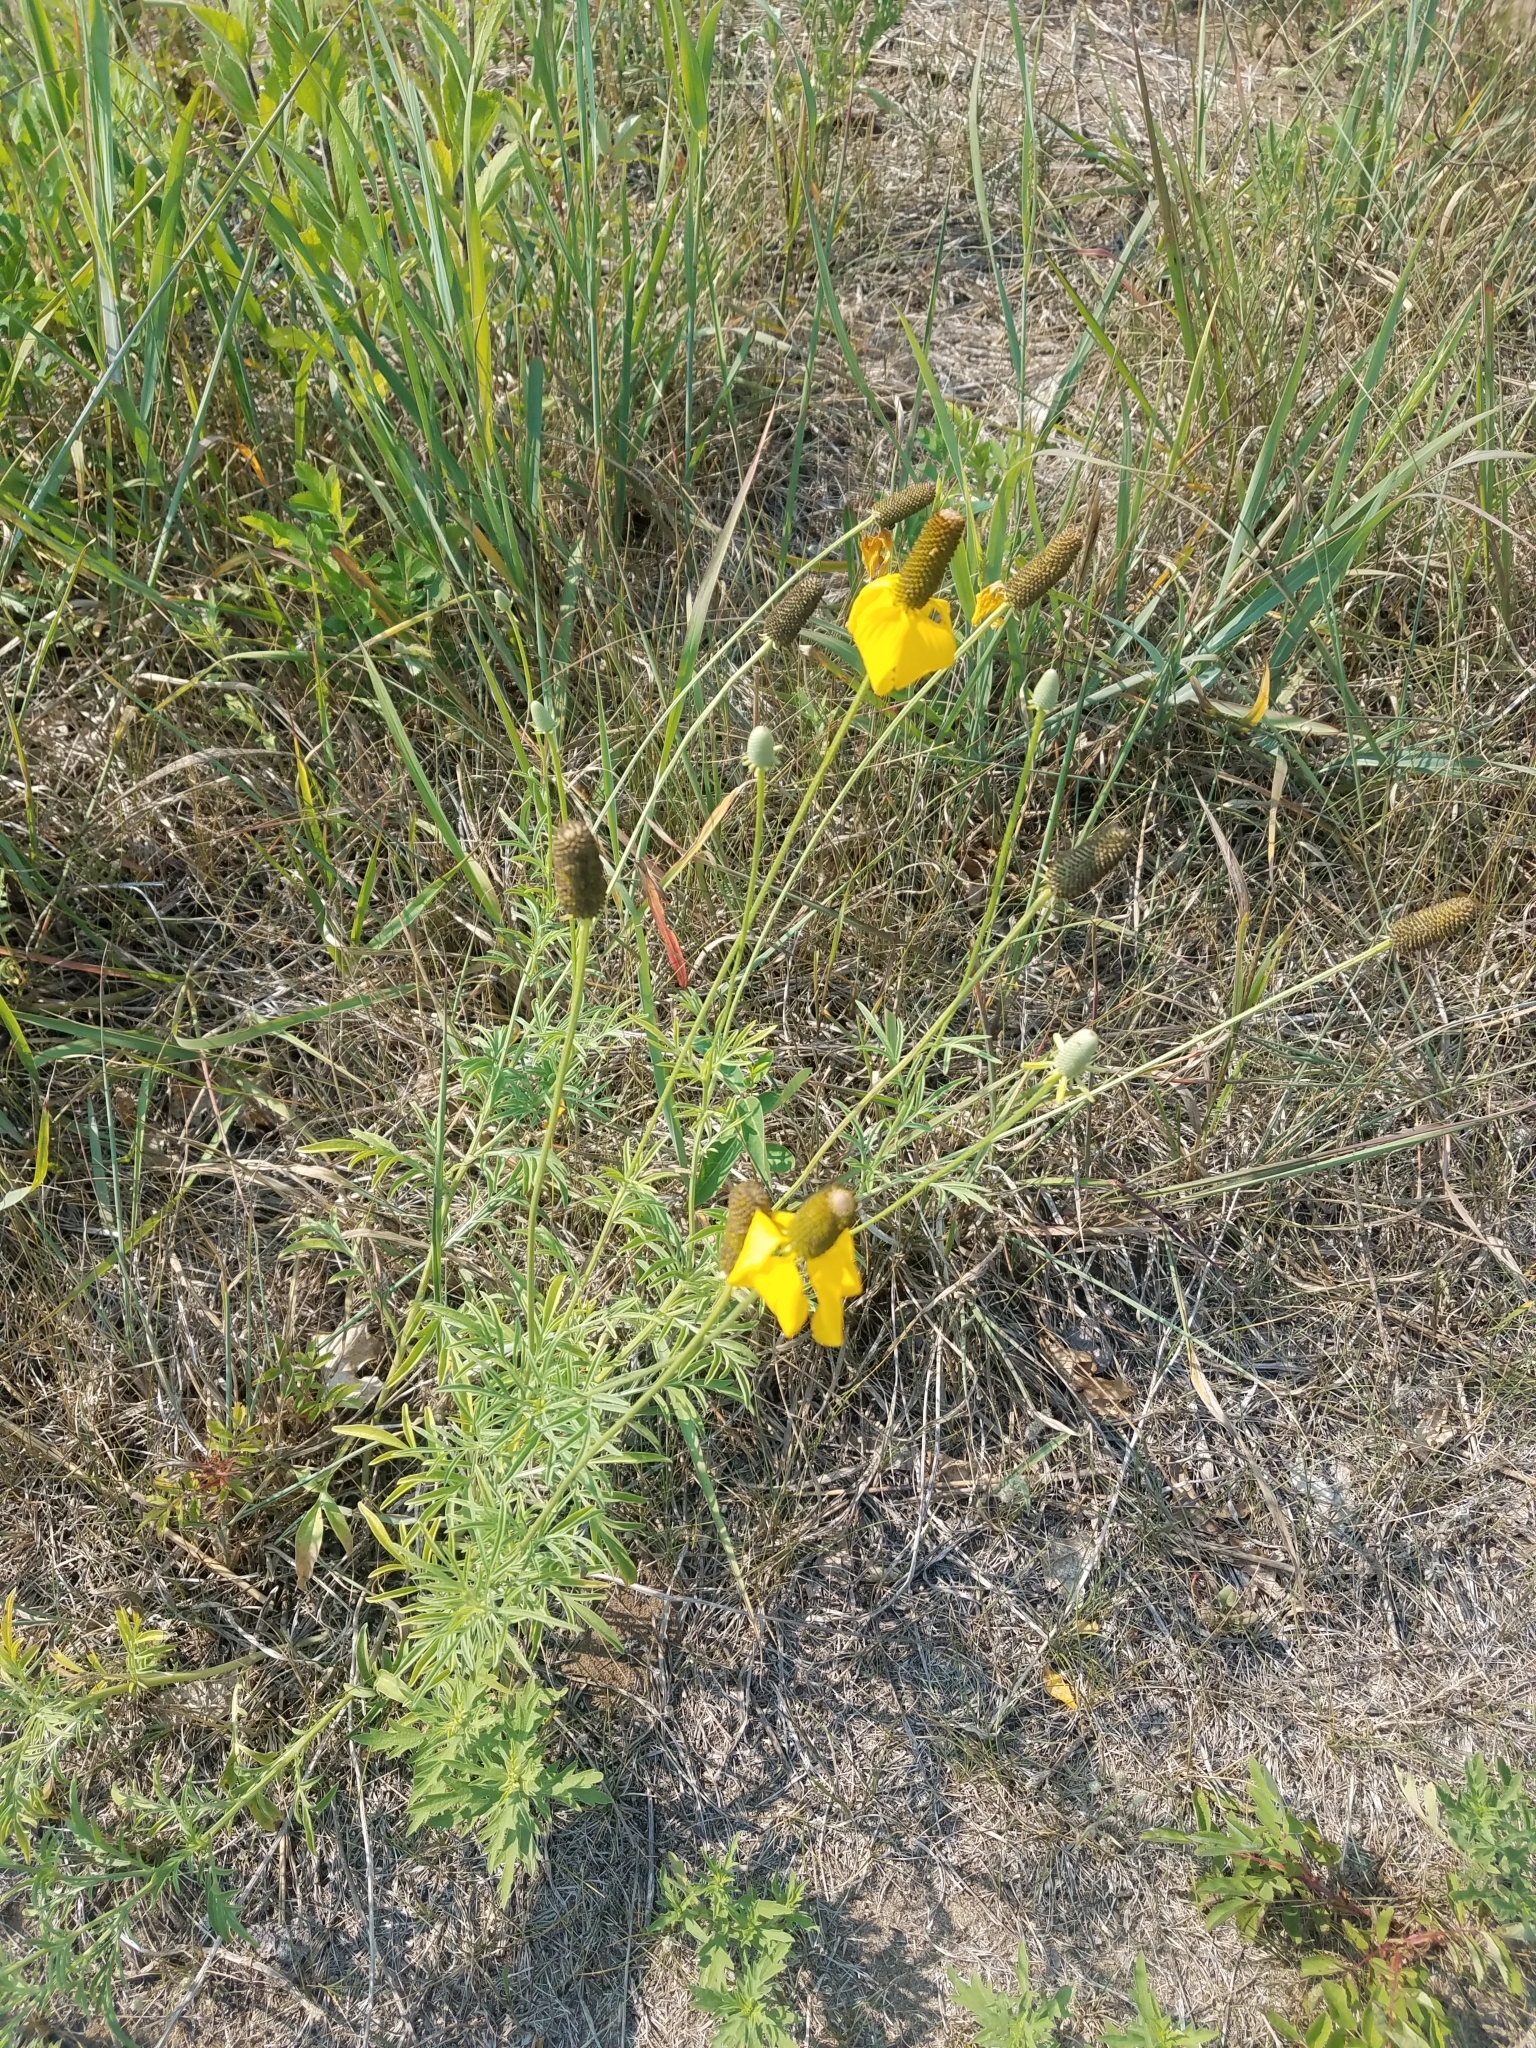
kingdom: Plantae
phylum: Tracheophyta
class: Magnoliopsida
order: Asterales
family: Asteraceae
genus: Ratibida
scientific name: Ratibida columnifera
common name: Prairie coneflower
